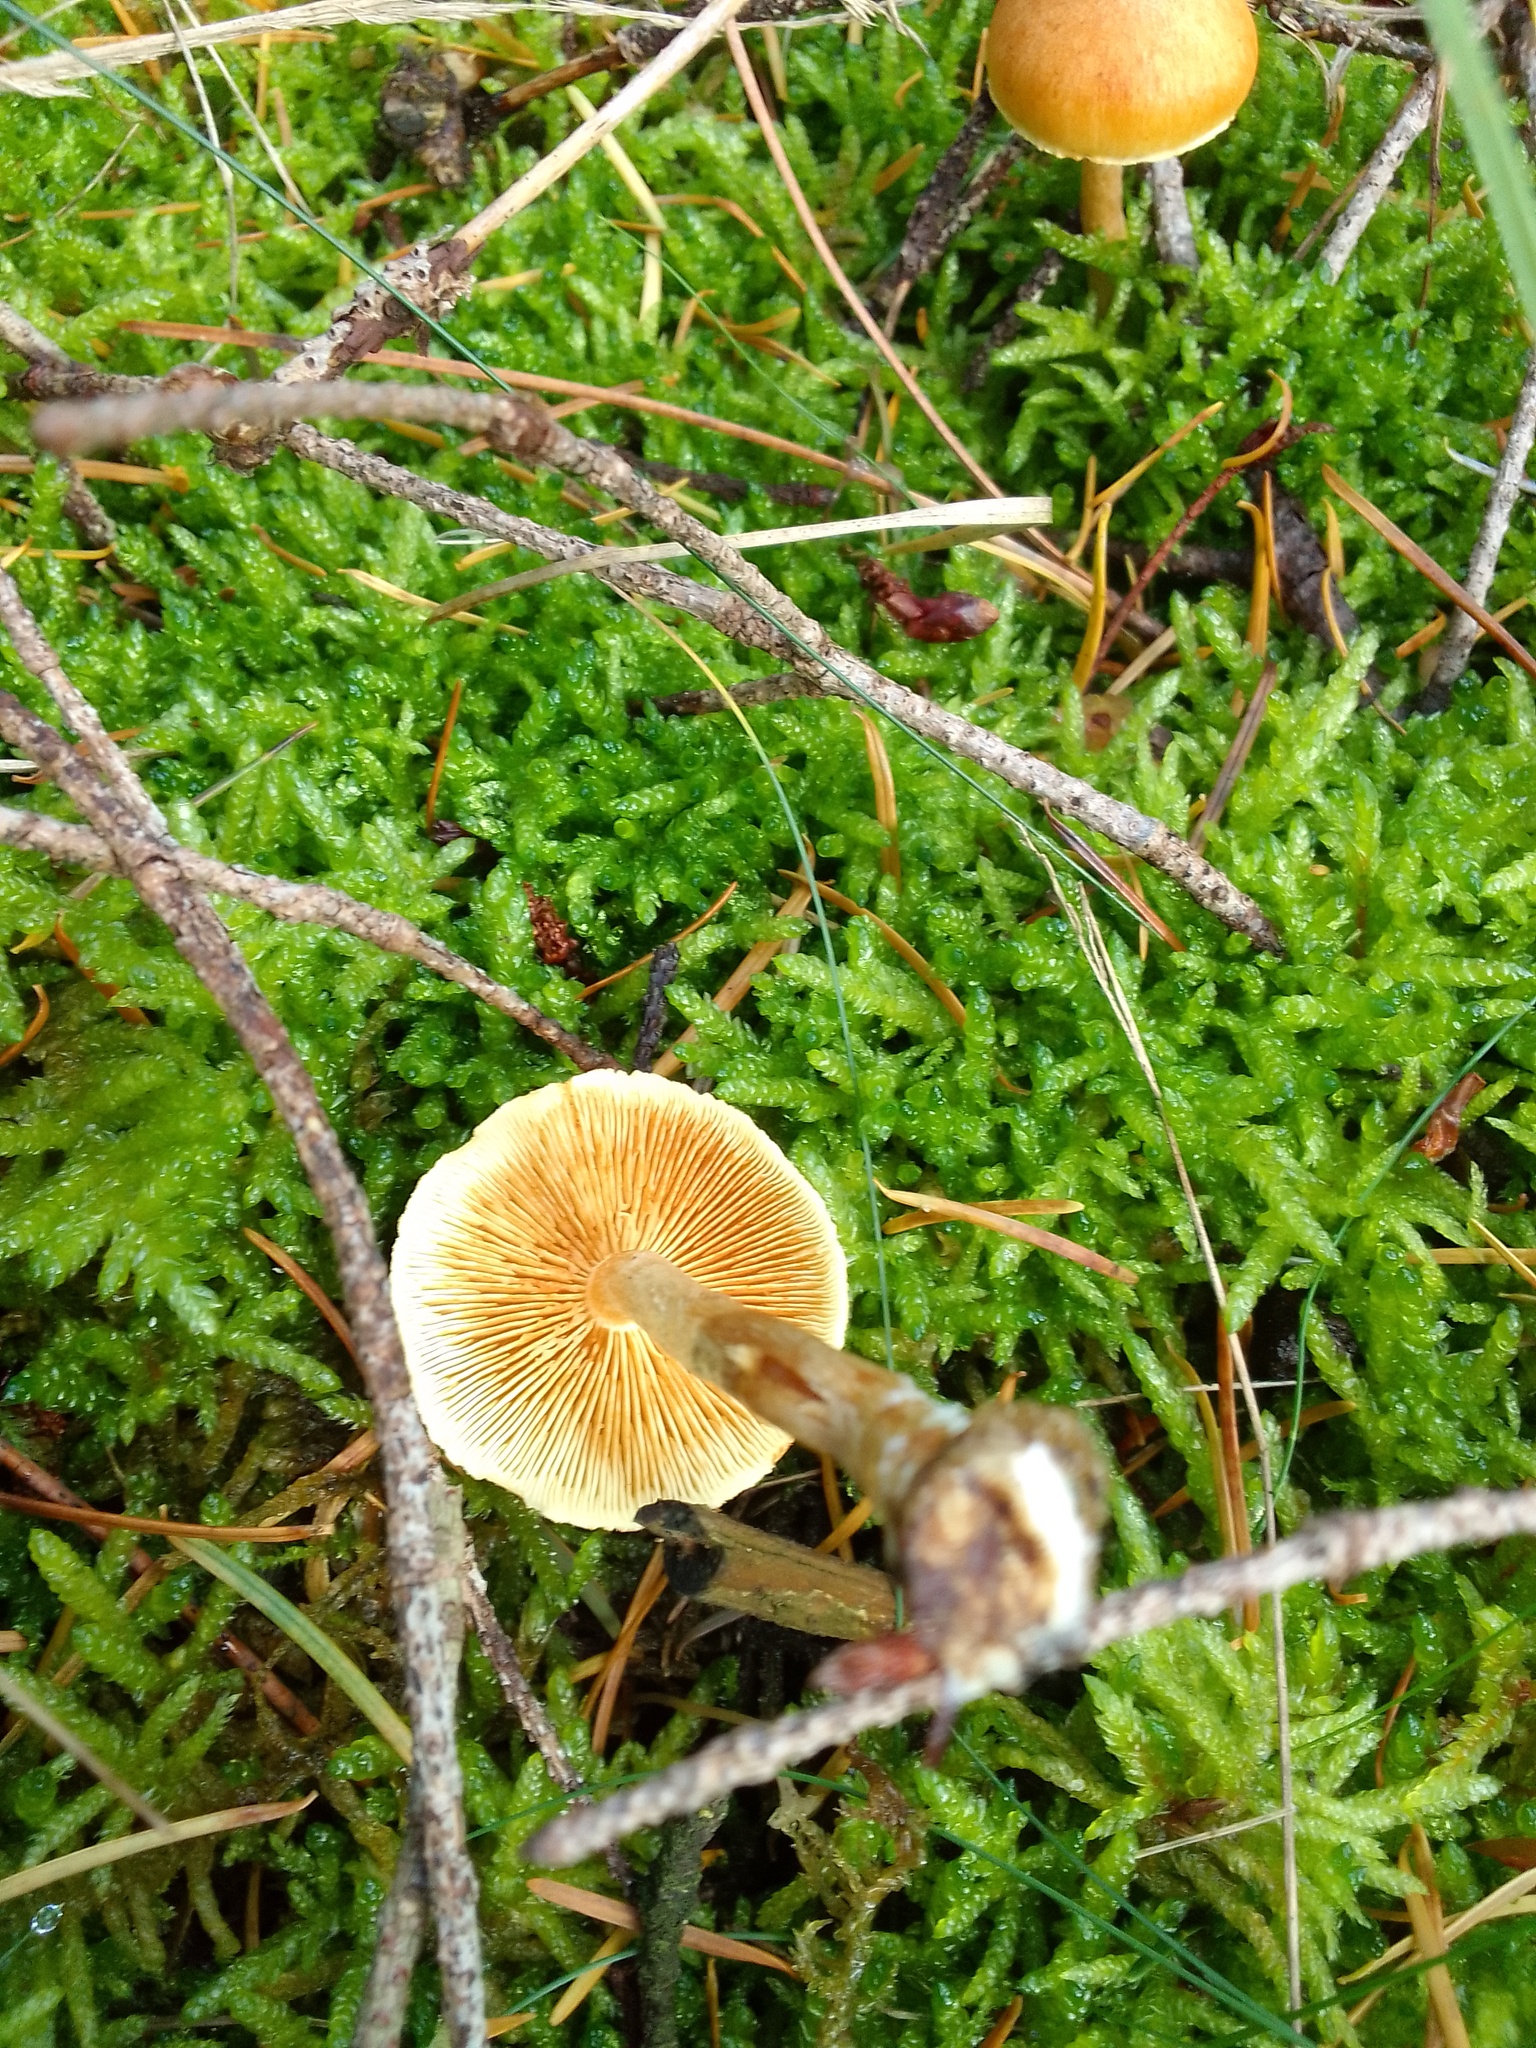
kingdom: Fungi
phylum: Basidiomycota
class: Agaricomycetes
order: Agaricales
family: Hymenogastraceae
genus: Gymnopilus
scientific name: Gymnopilus penetrans
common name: Common rustgill
